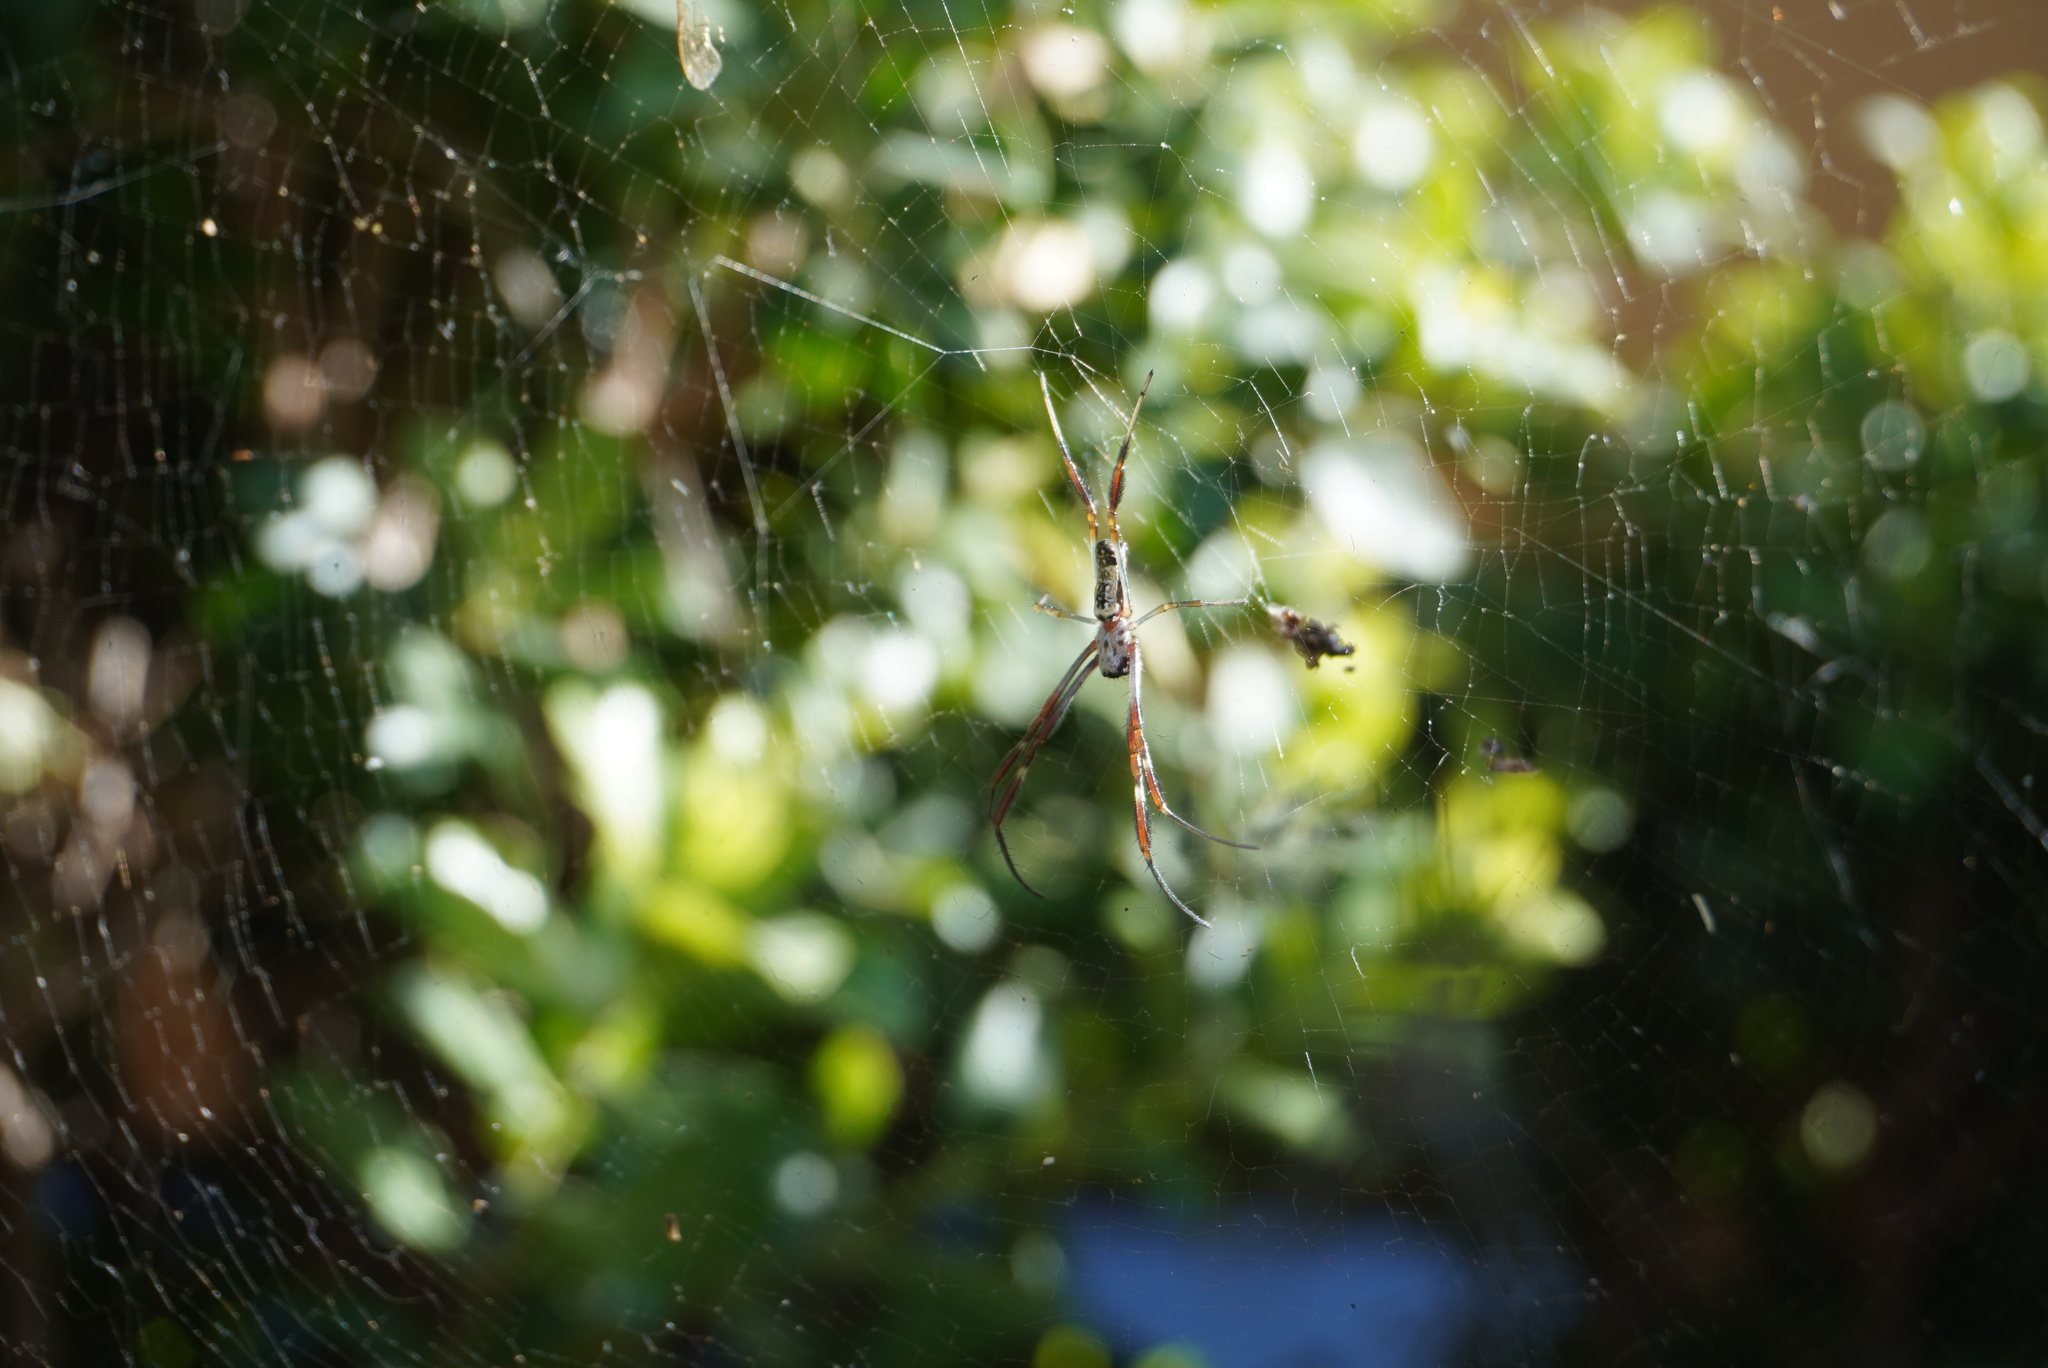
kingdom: Animalia
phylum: Arthropoda
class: Arachnida
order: Araneae
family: Araneidae
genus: Trichonephila
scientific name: Trichonephila edulis
